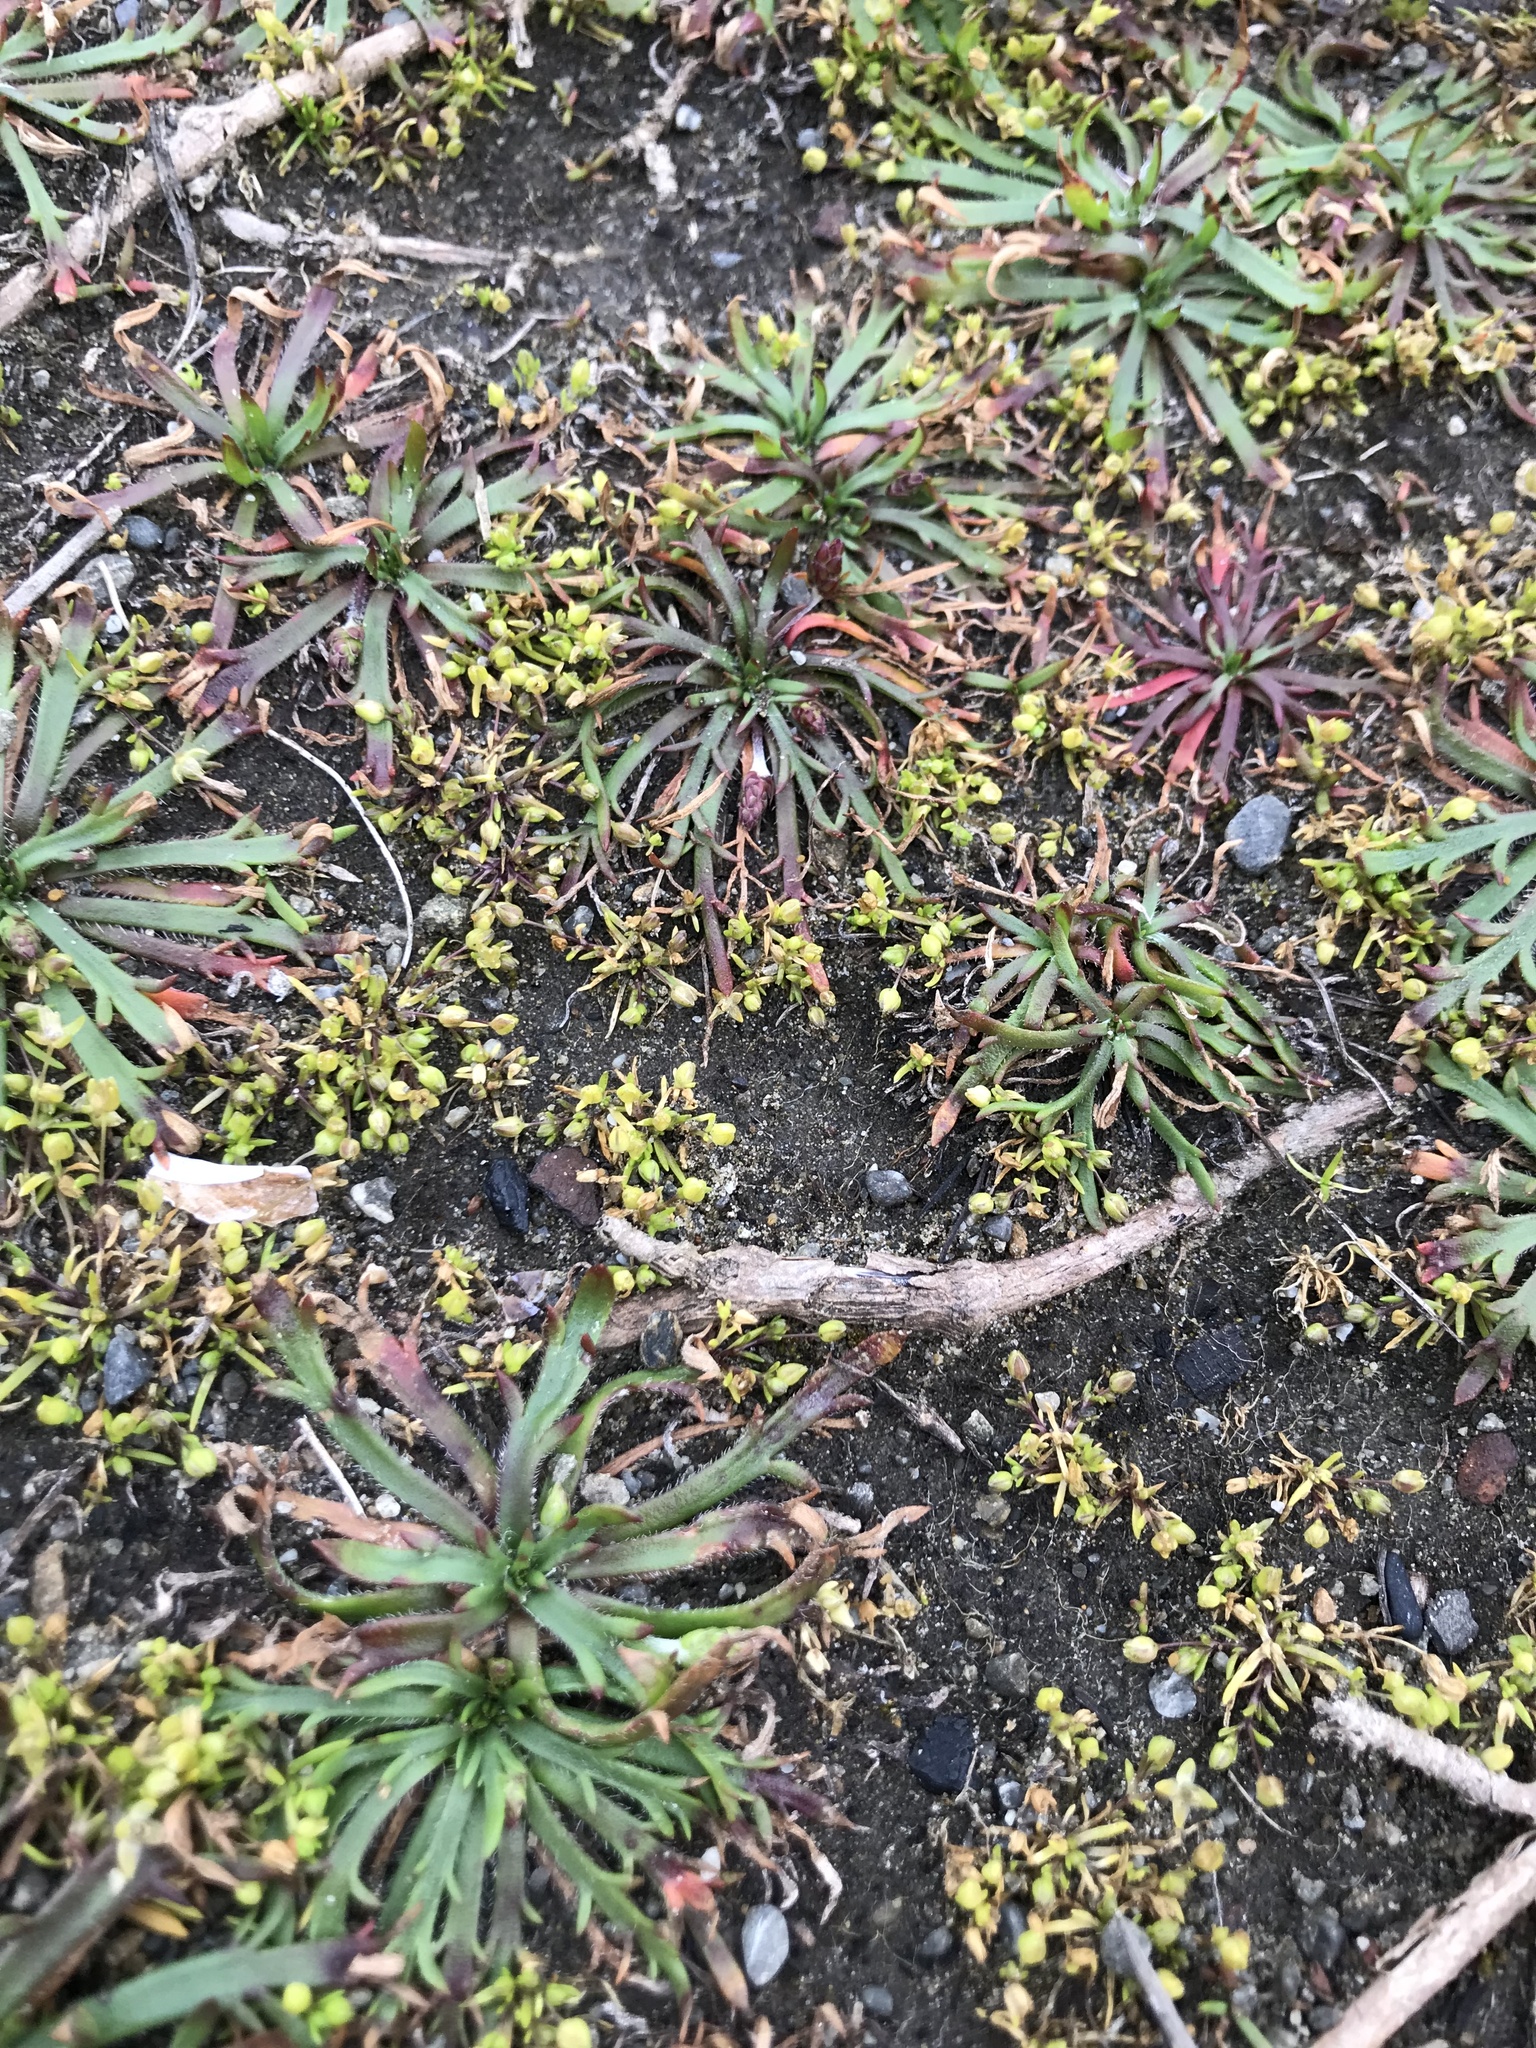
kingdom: Plantae
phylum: Tracheophyta
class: Magnoliopsida
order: Caryophyllales
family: Caryophyllaceae
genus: Sagina
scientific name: Sagina procumbens
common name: Procumbent pearlwort
